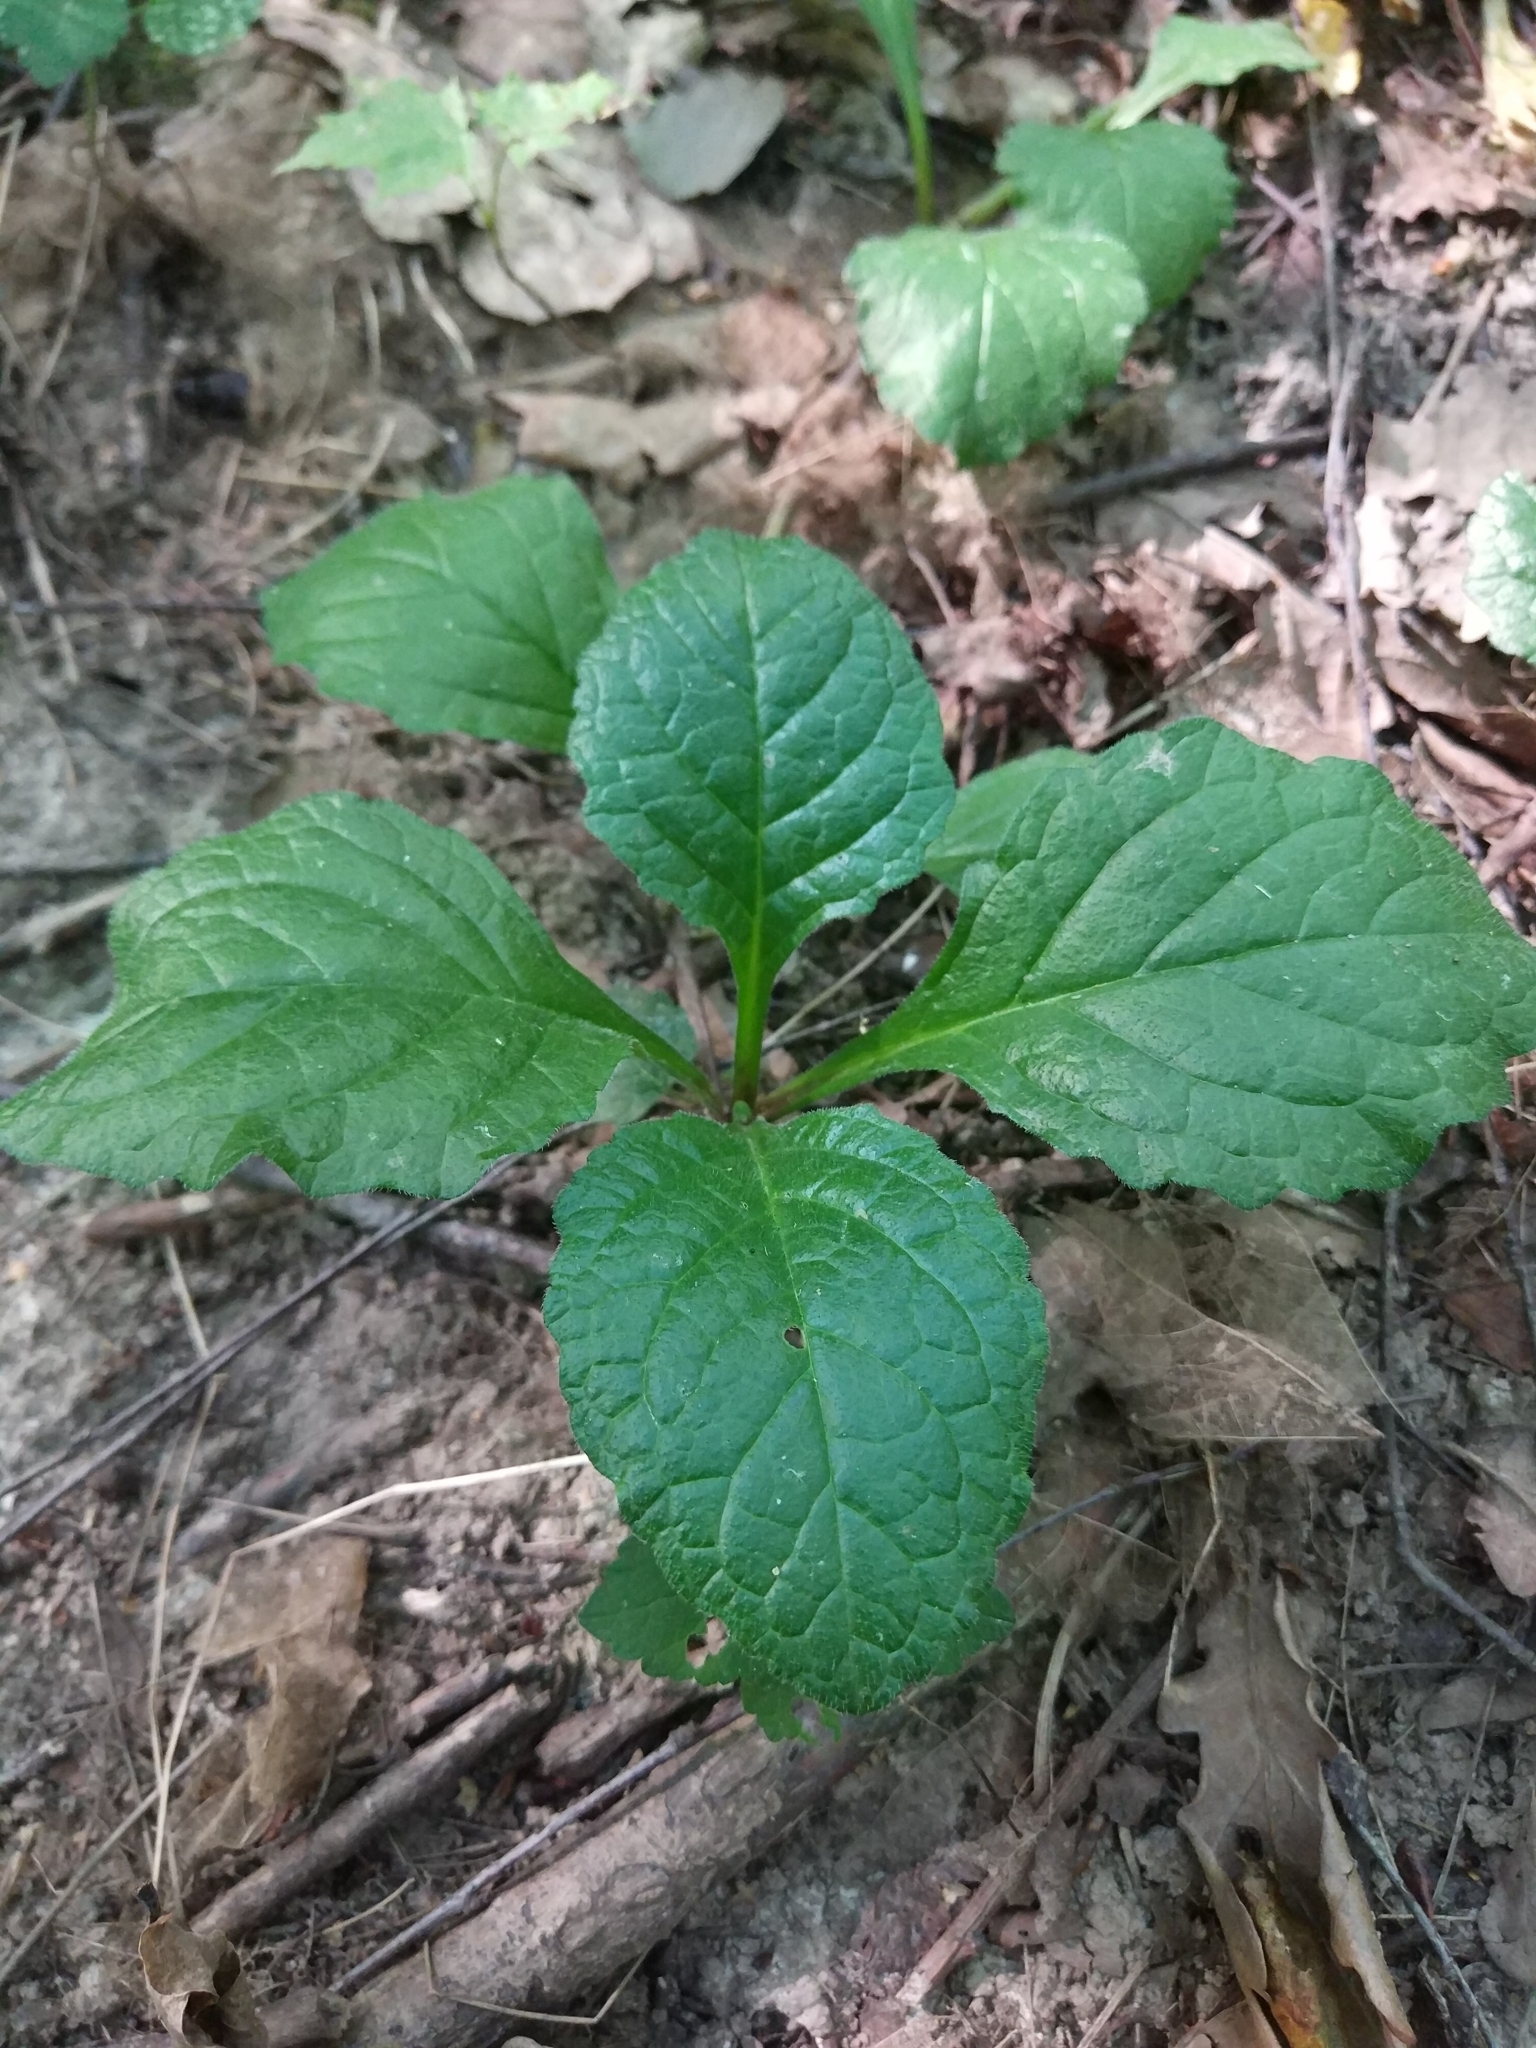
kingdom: Plantae
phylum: Tracheophyta
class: Magnoliopsida
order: Lamiales
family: Lamiaceae
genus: Ajuga
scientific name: Ajuga reptans
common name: Bugle
